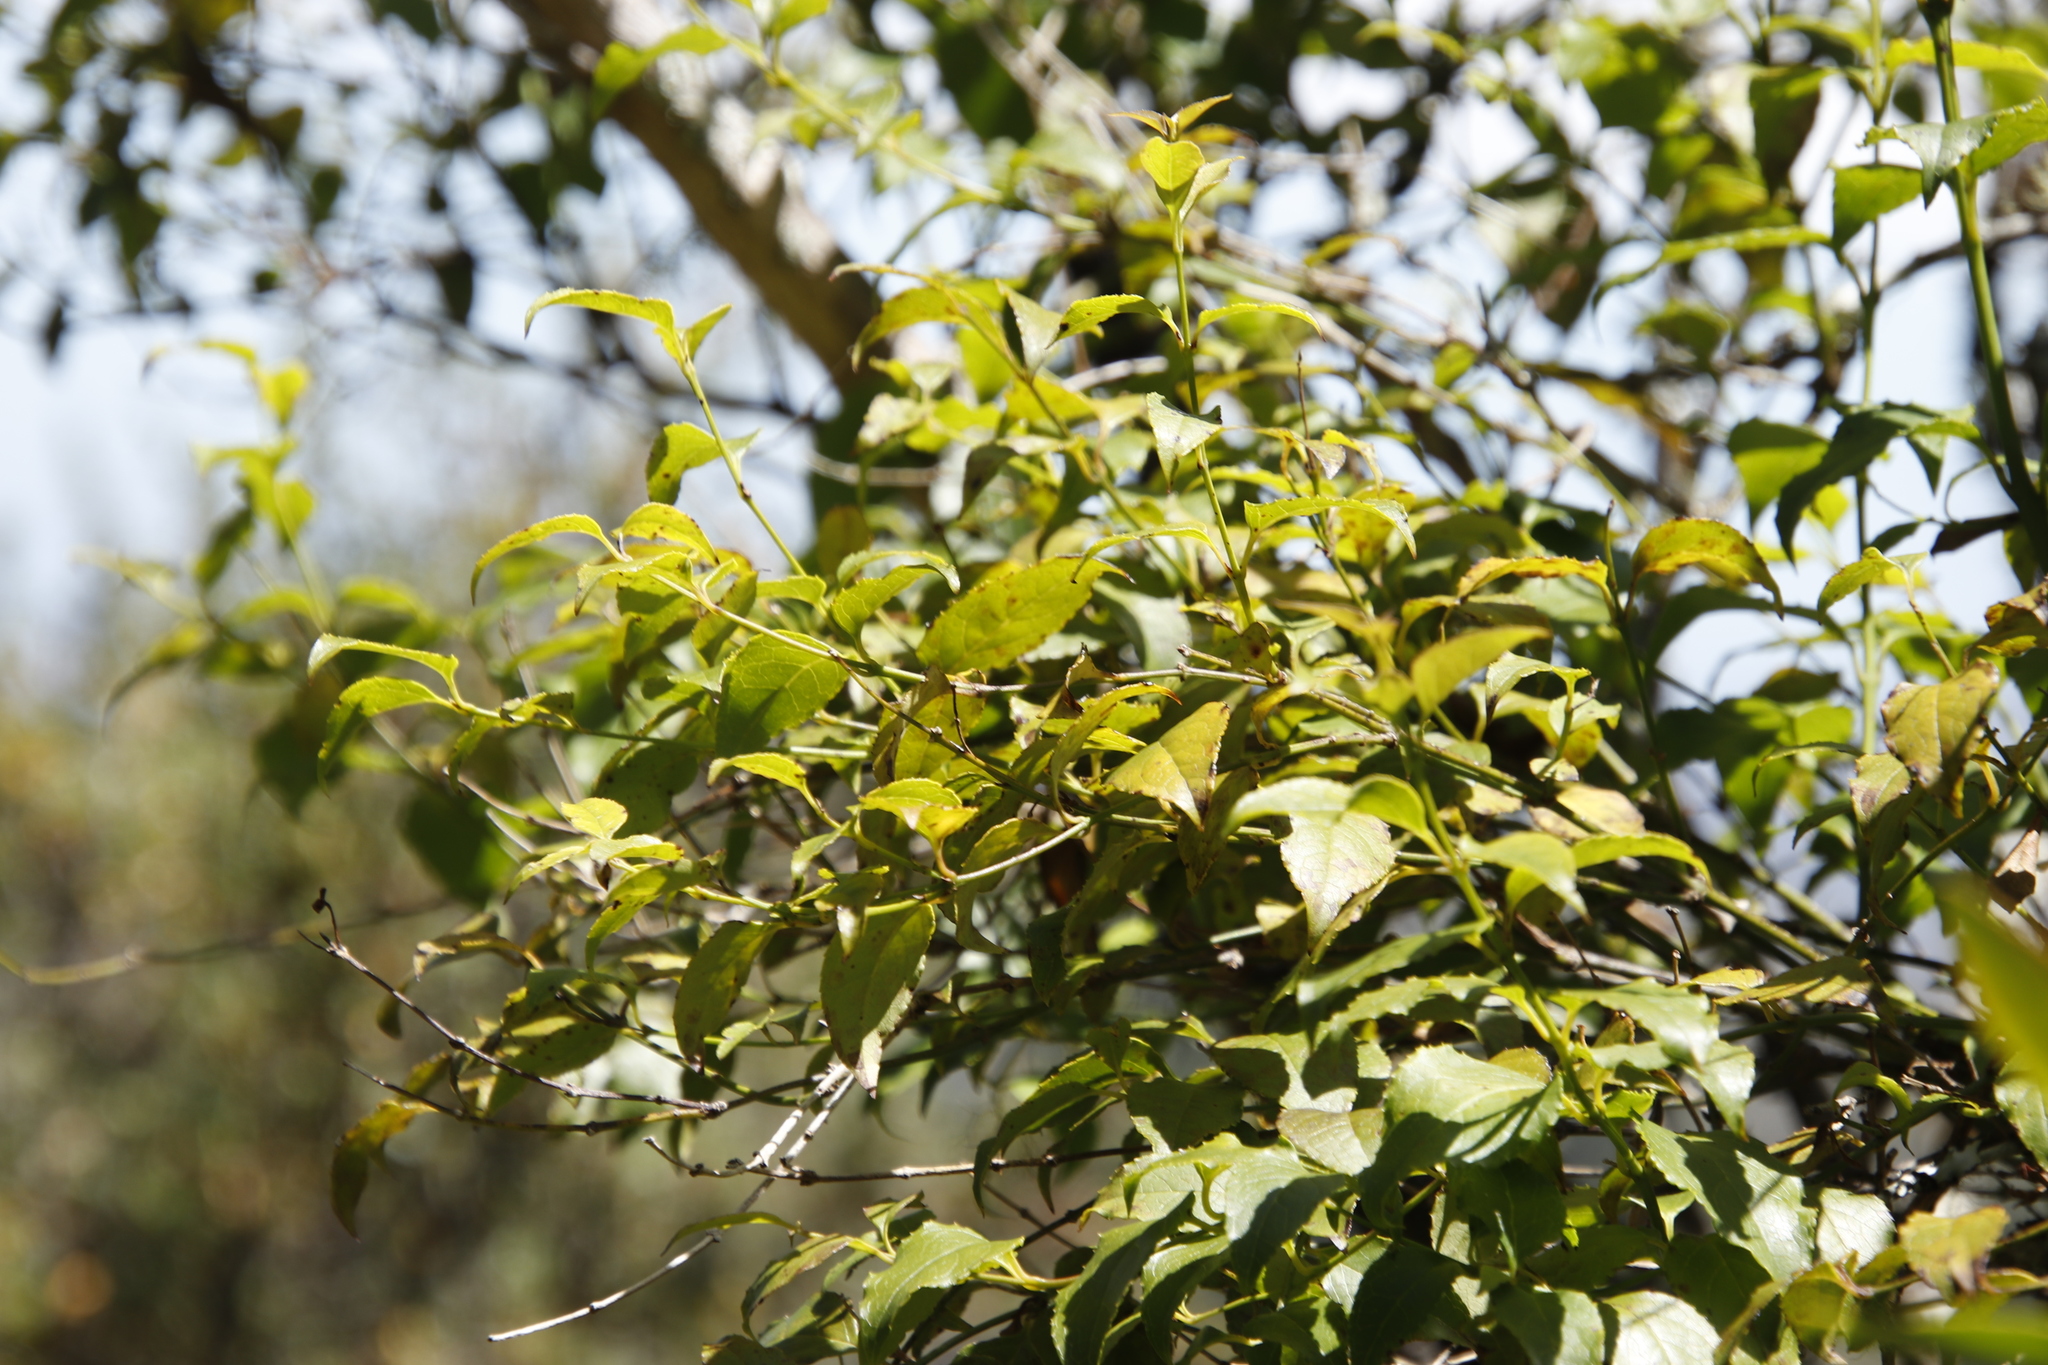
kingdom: Plantae
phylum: Tracheophyta
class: Magnoliopsida
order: Lamiales
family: Stilbaceae
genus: Halleria
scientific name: Halleria lucida
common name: Tree fuschia
